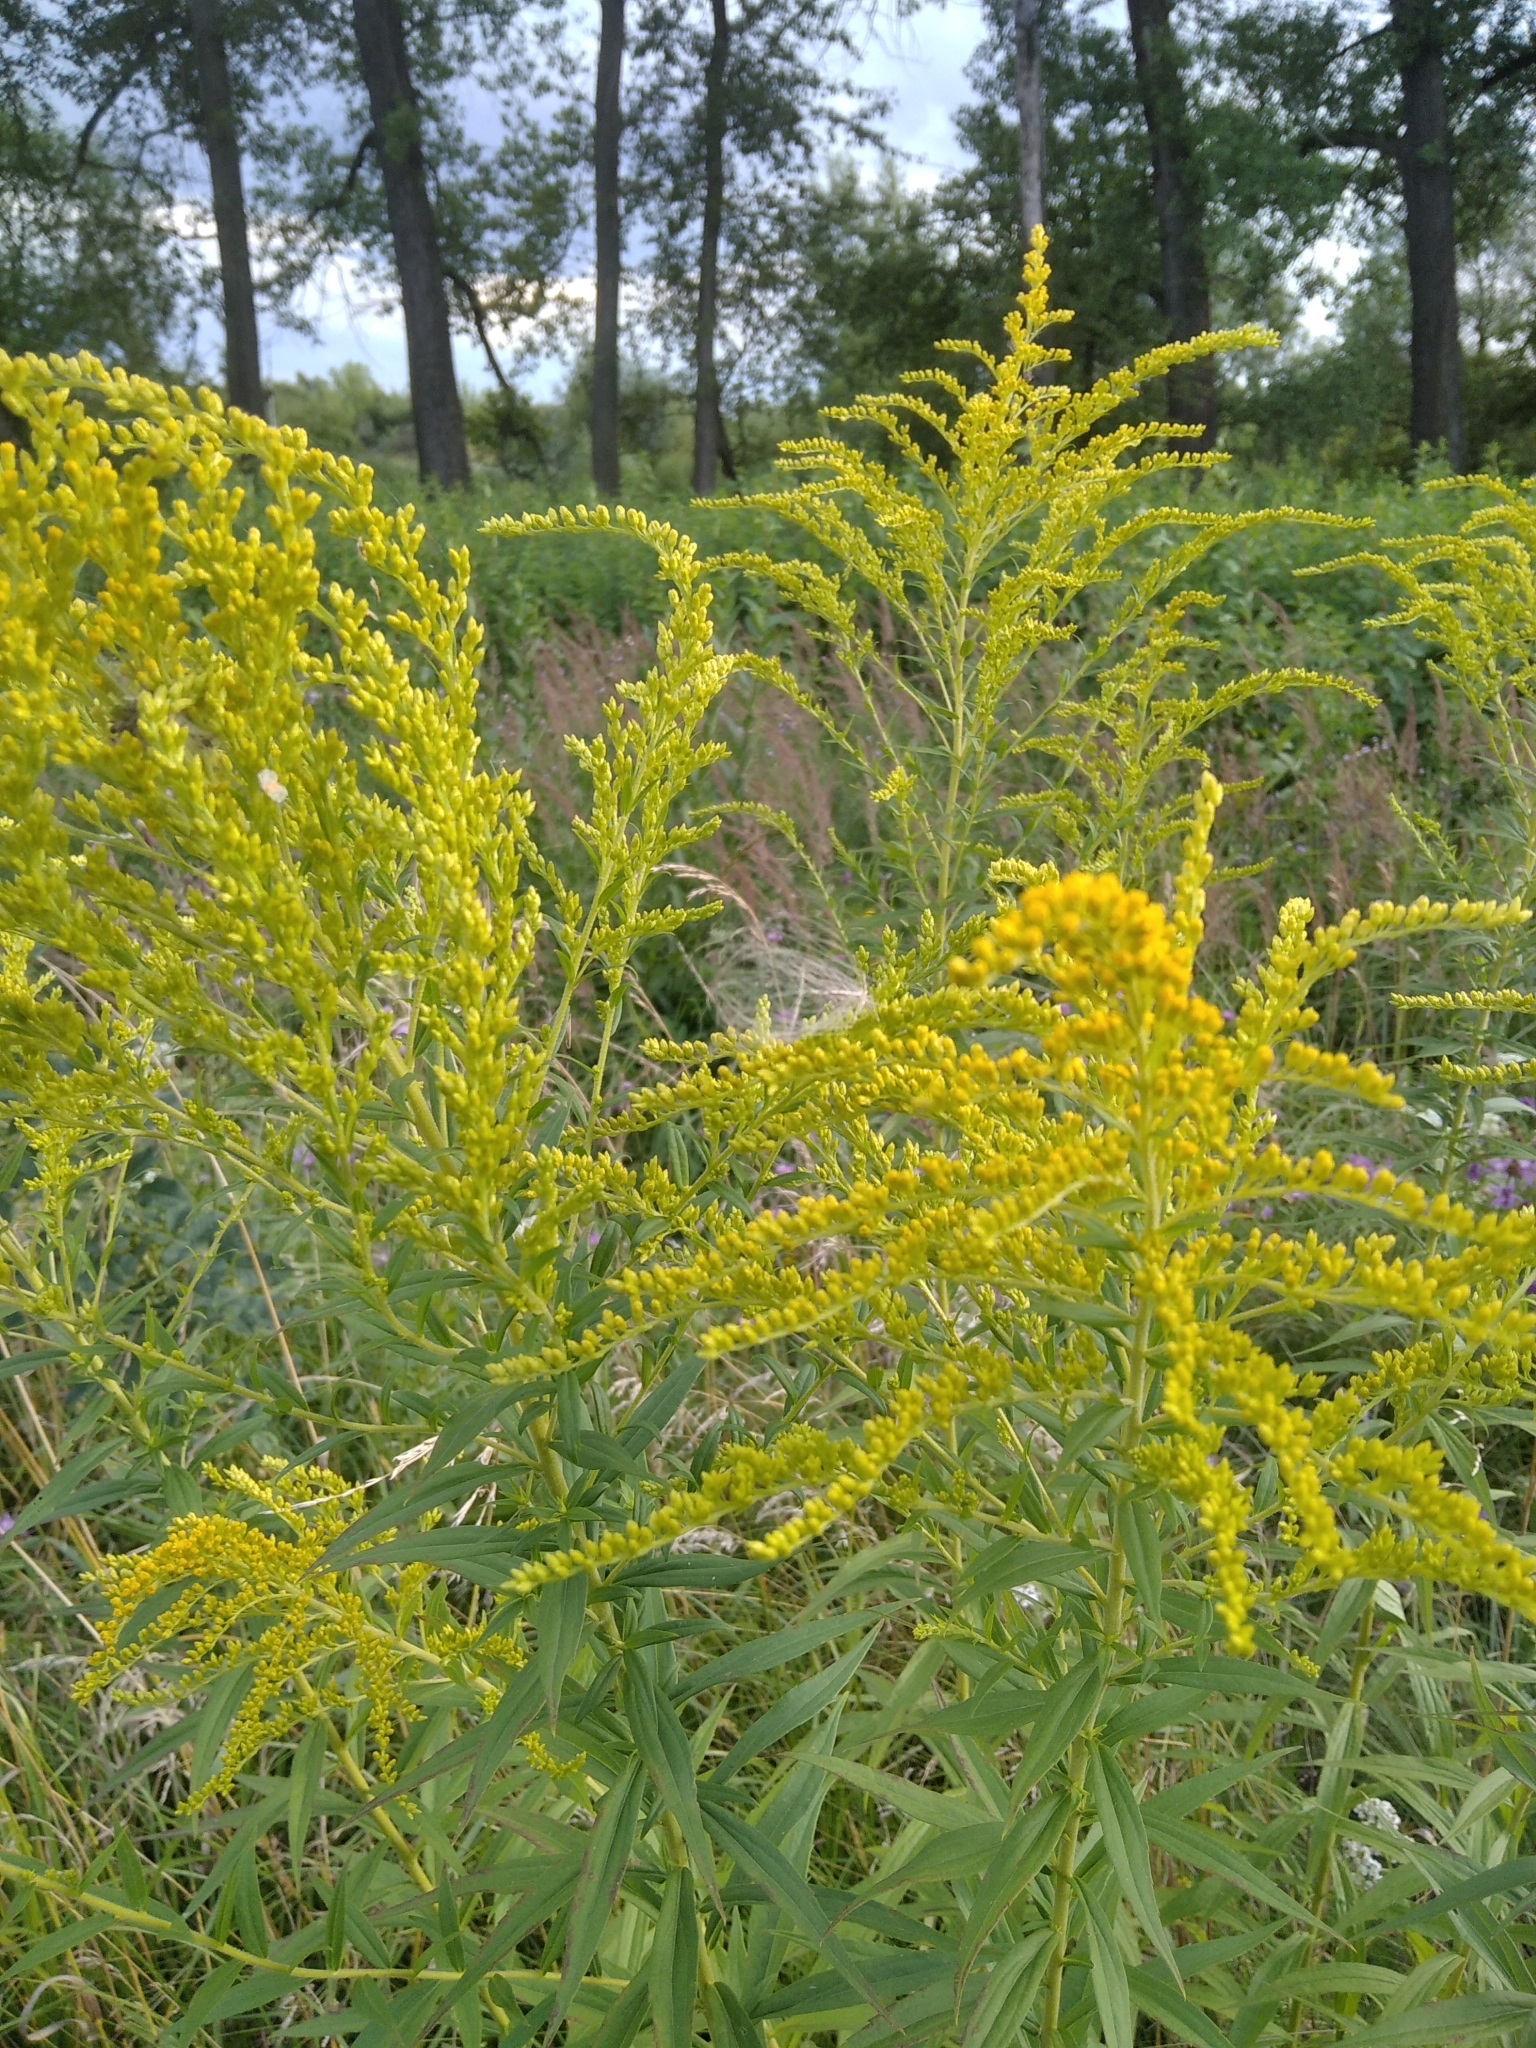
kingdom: Plantae
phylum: Tracheophyta
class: Magnoliopsida
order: Asterales
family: Asteraceae
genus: Solidago
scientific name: Solidago canadensis
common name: Canada goldenrod
